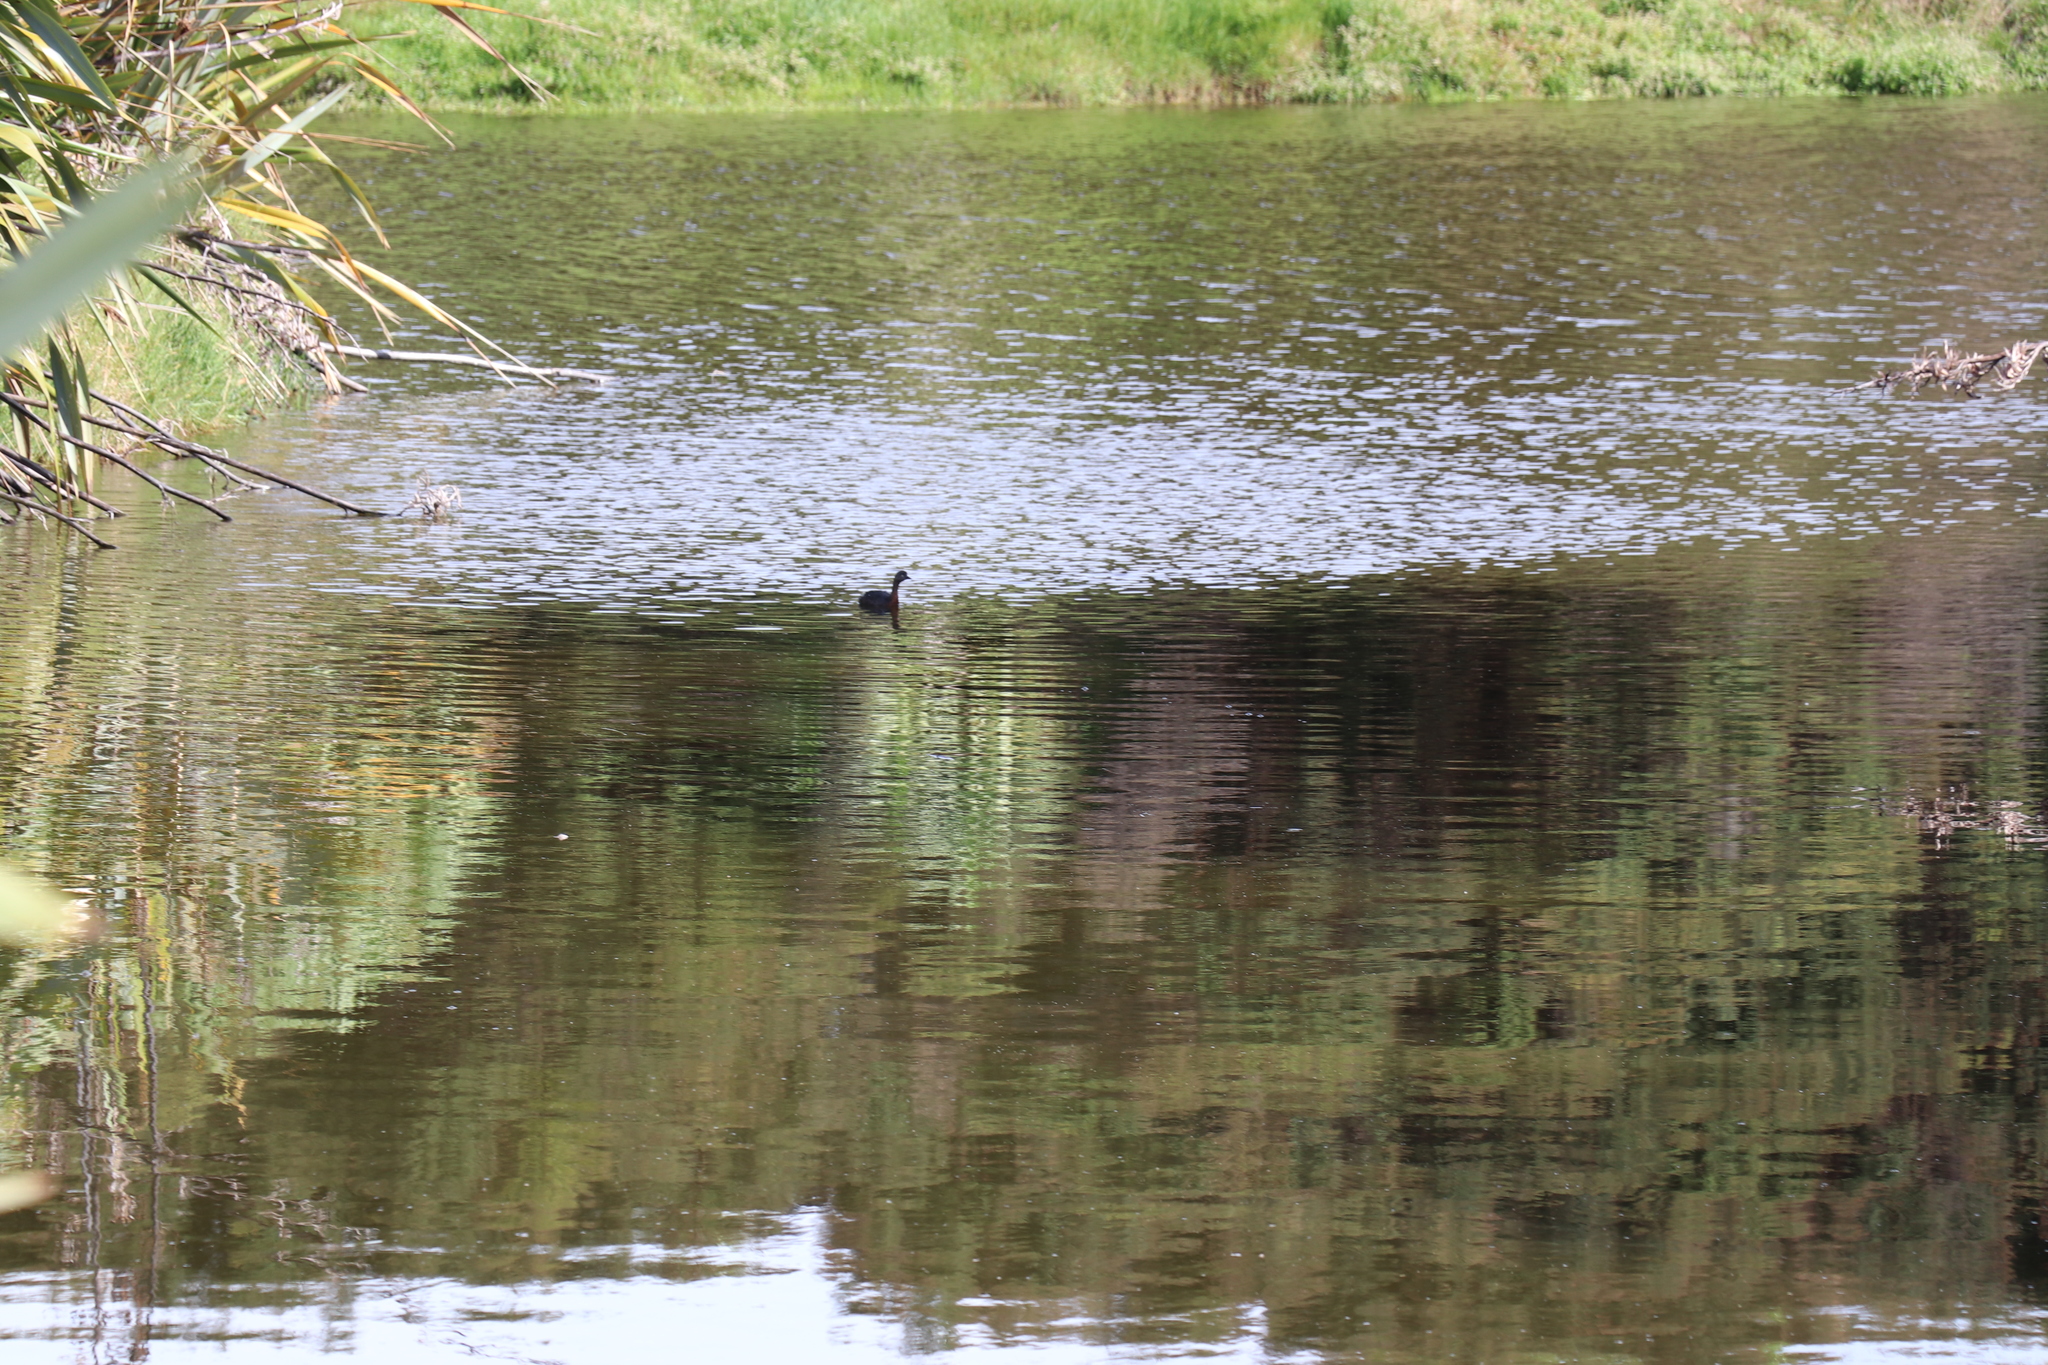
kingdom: Animalia
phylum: Chordata
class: Aves
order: Podicipediformes
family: Podicipedidae
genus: Poliocephalus
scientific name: Poliocephalus rufopectus
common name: New zealand grebe
